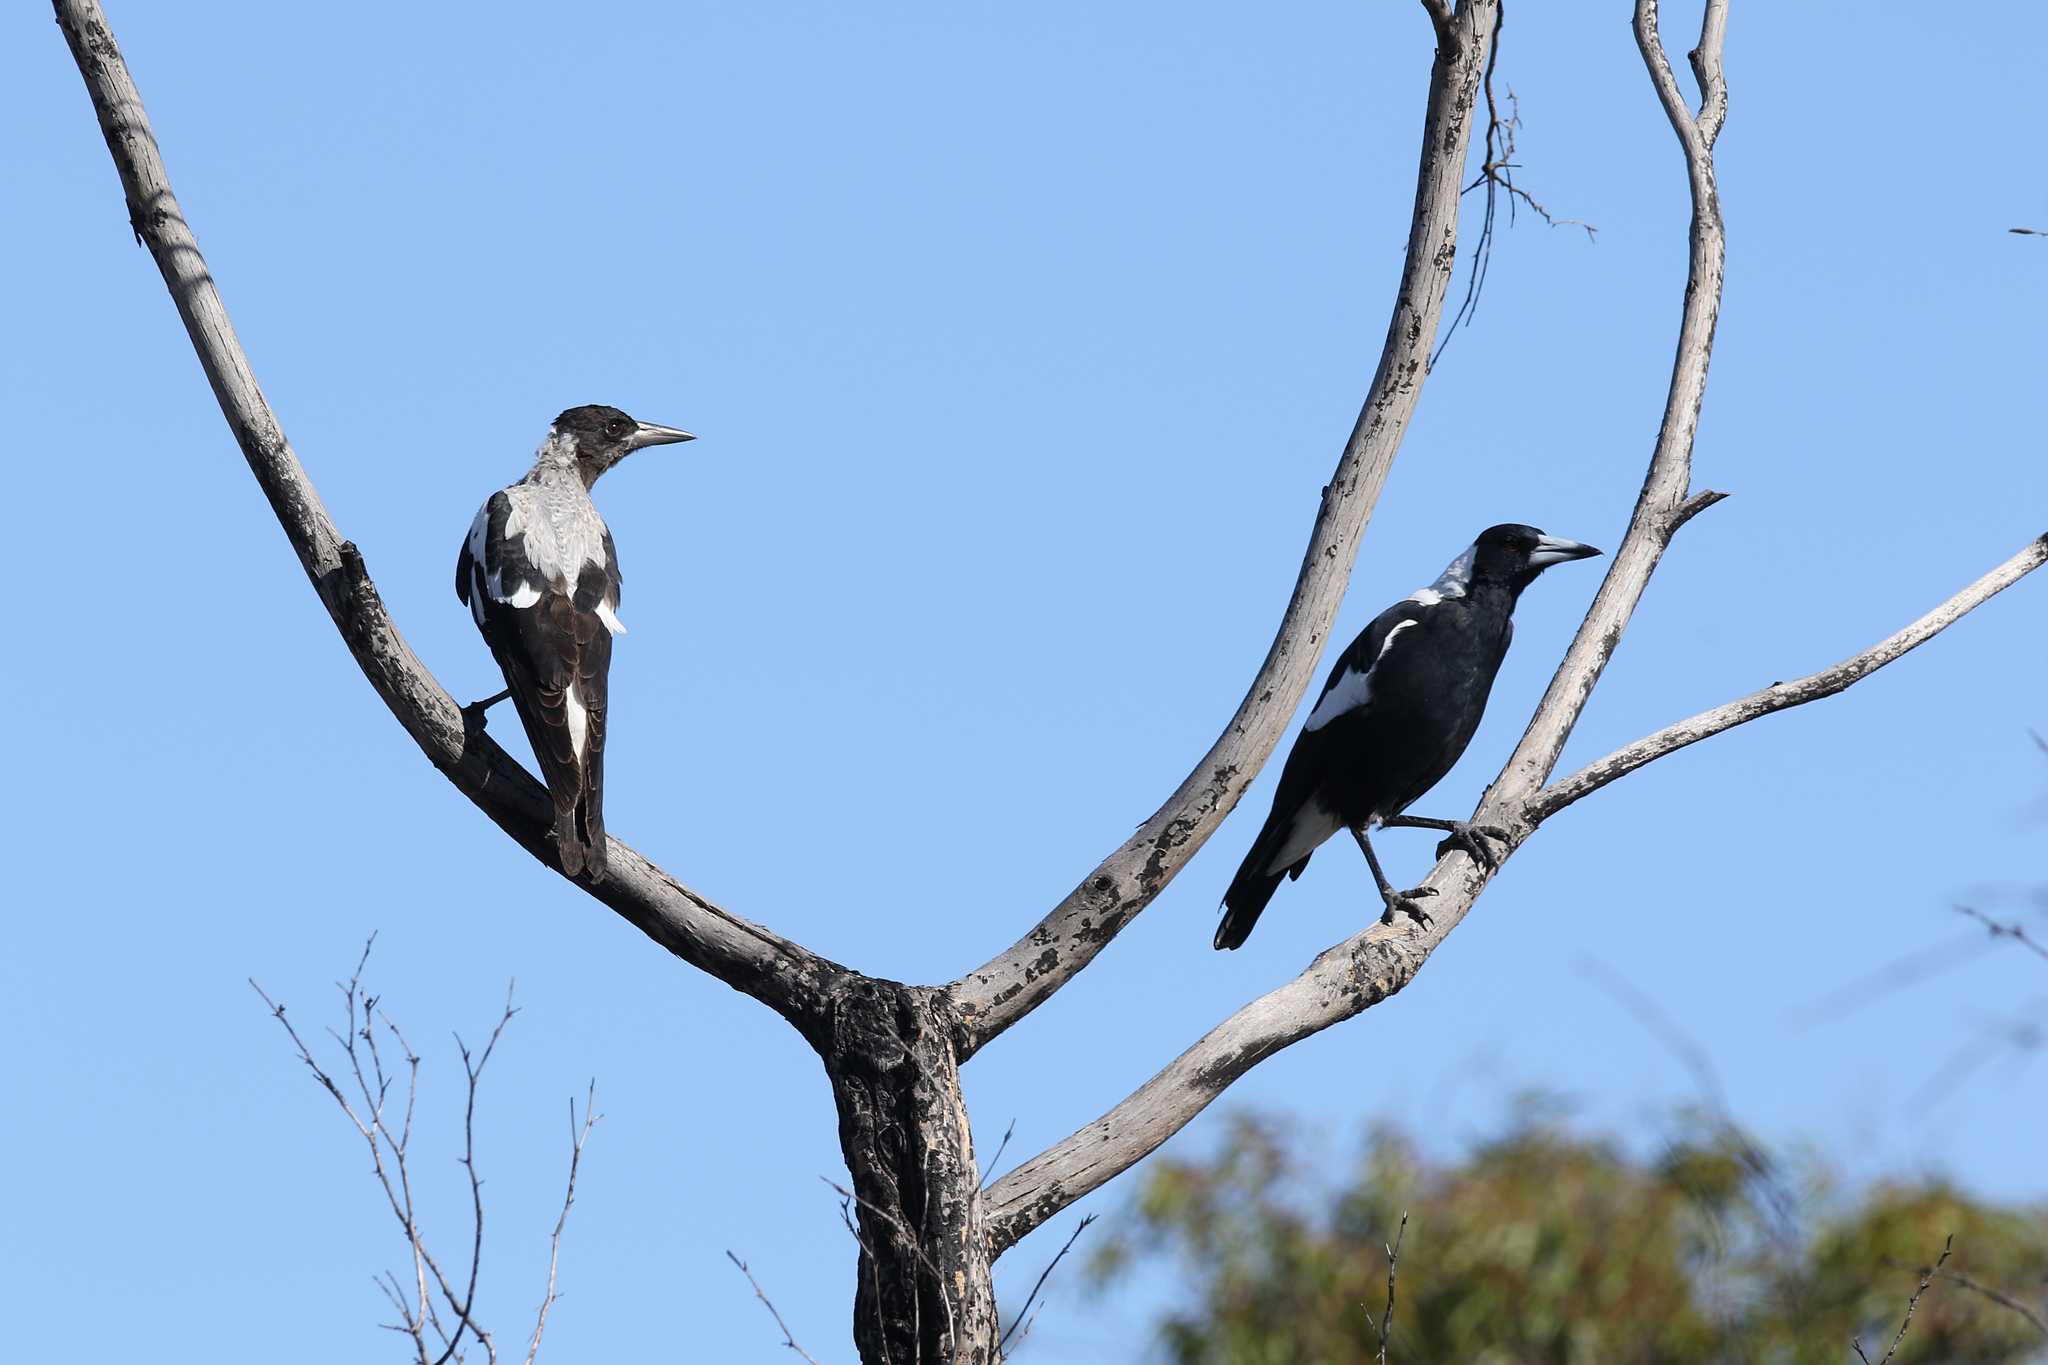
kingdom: Animalia
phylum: Chordata
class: Aves
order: Passeriformes
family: Cracticidae
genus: Gymnorhina
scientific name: Gymnorhina tibicen
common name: Australian magpie
